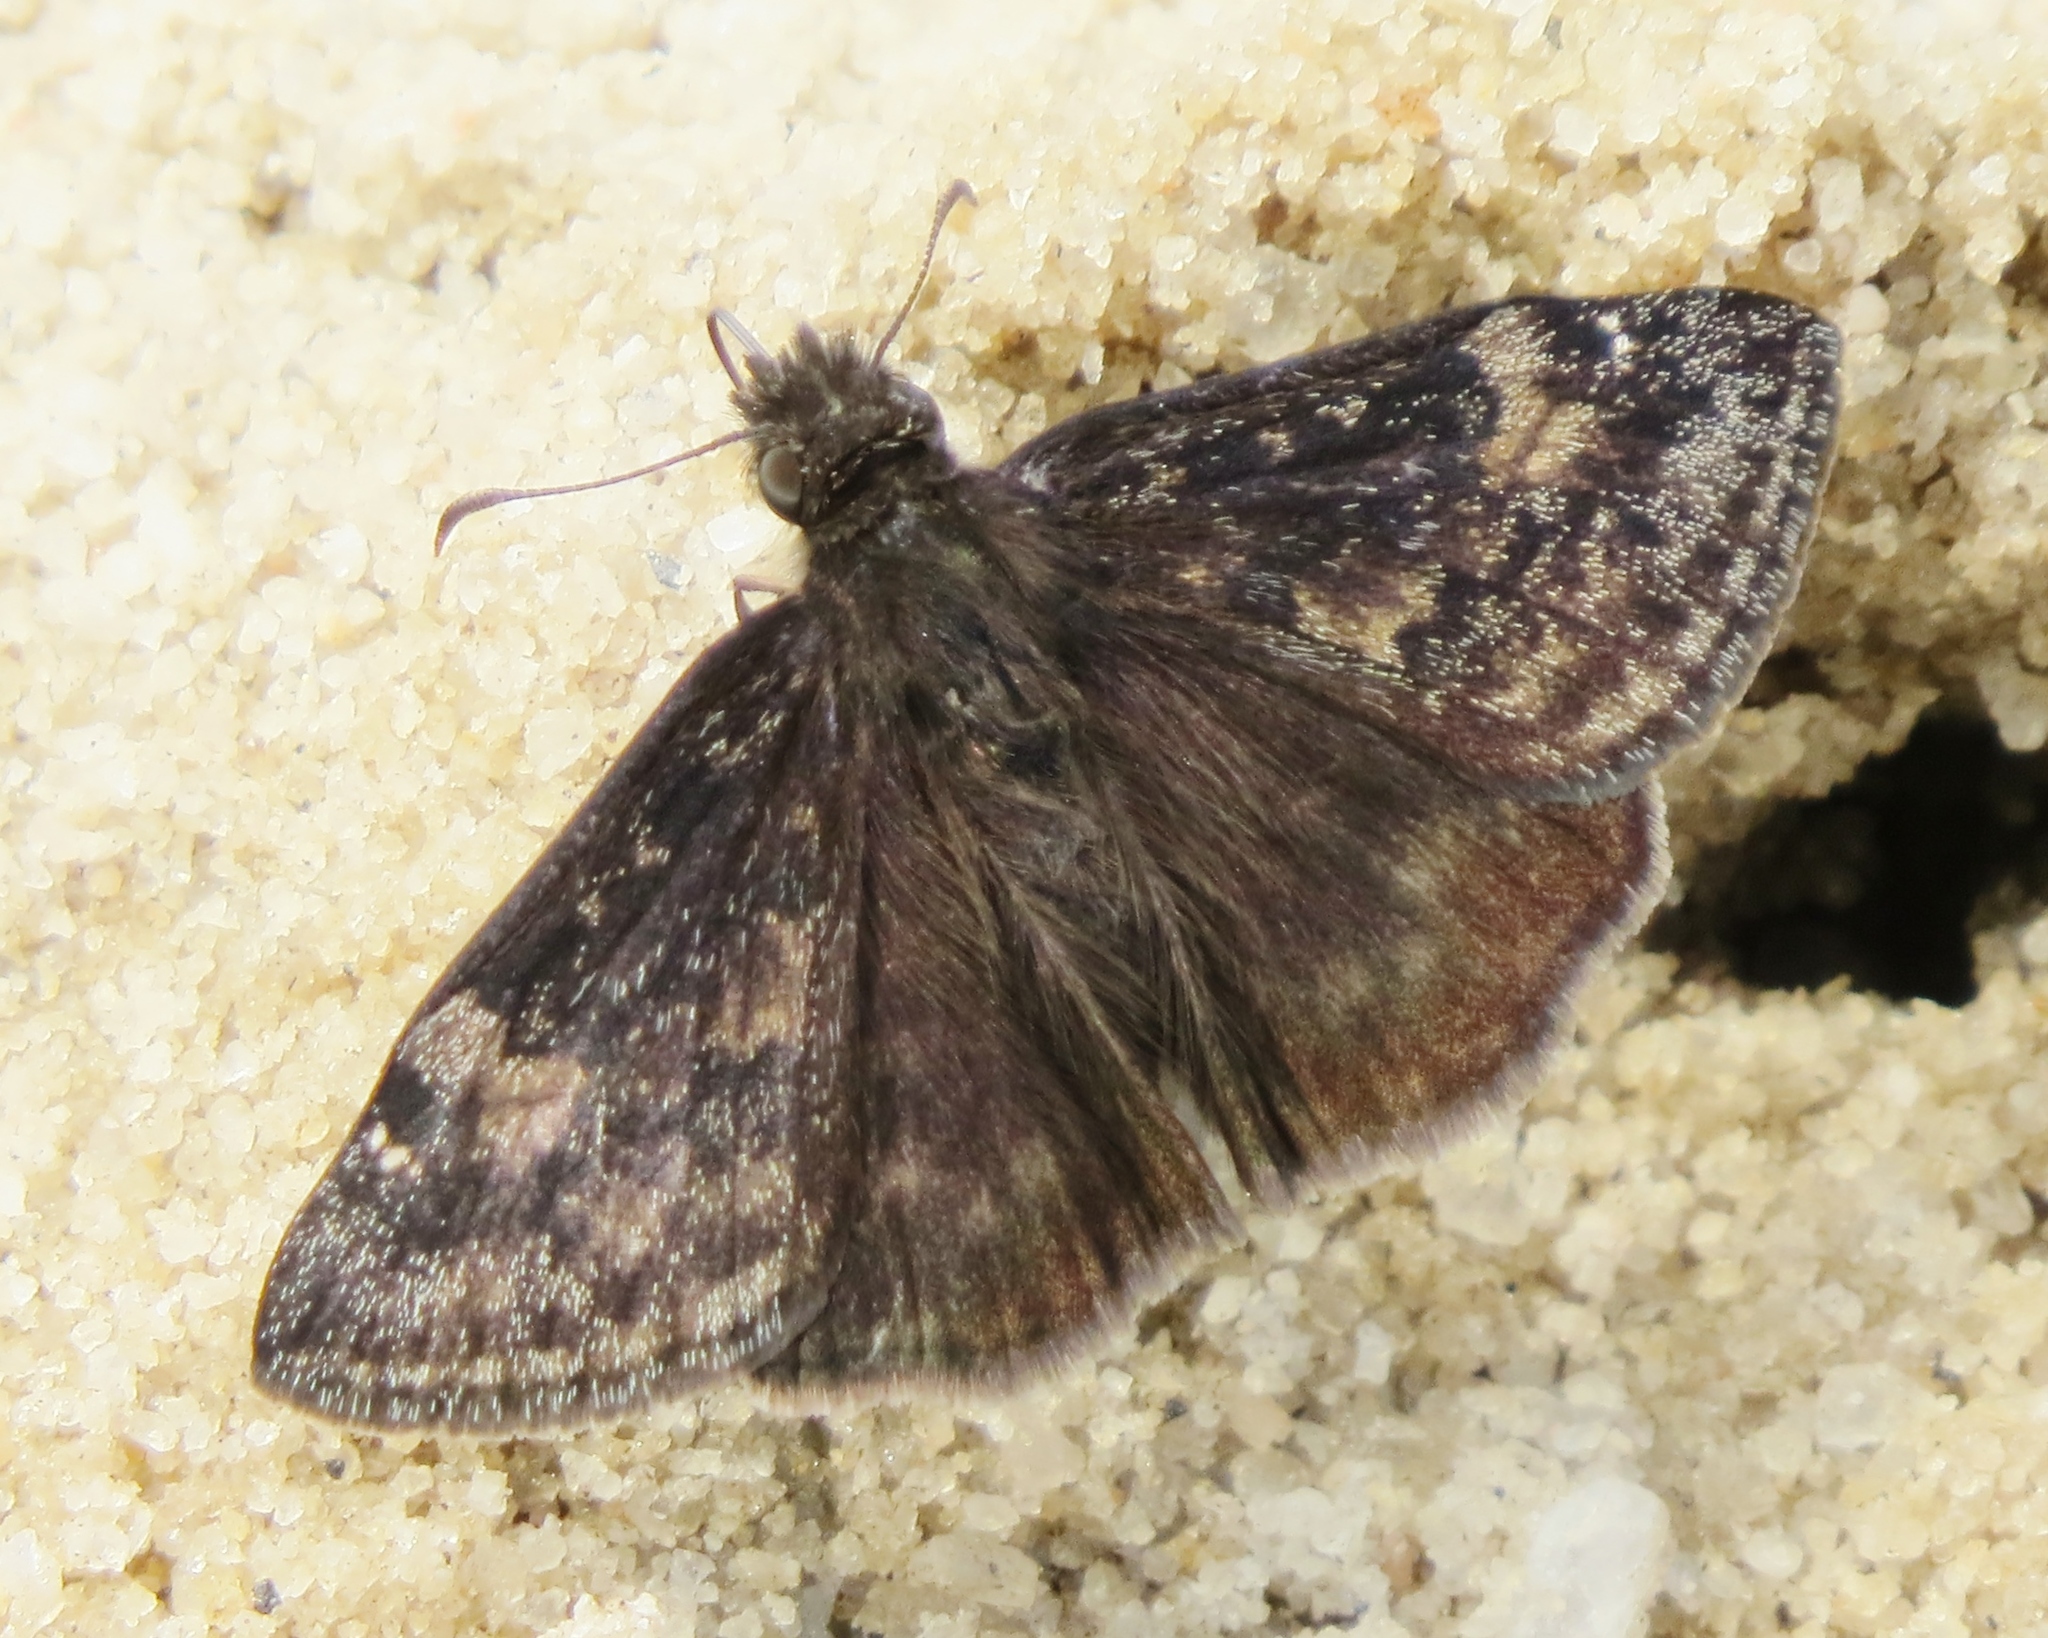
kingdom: Animalia
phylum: Arthropoda
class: Insecta
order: Lepidoptera
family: Hesperiidae
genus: Erynnis
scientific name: Erynnis baptisiae
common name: Wild indigo duskywing
